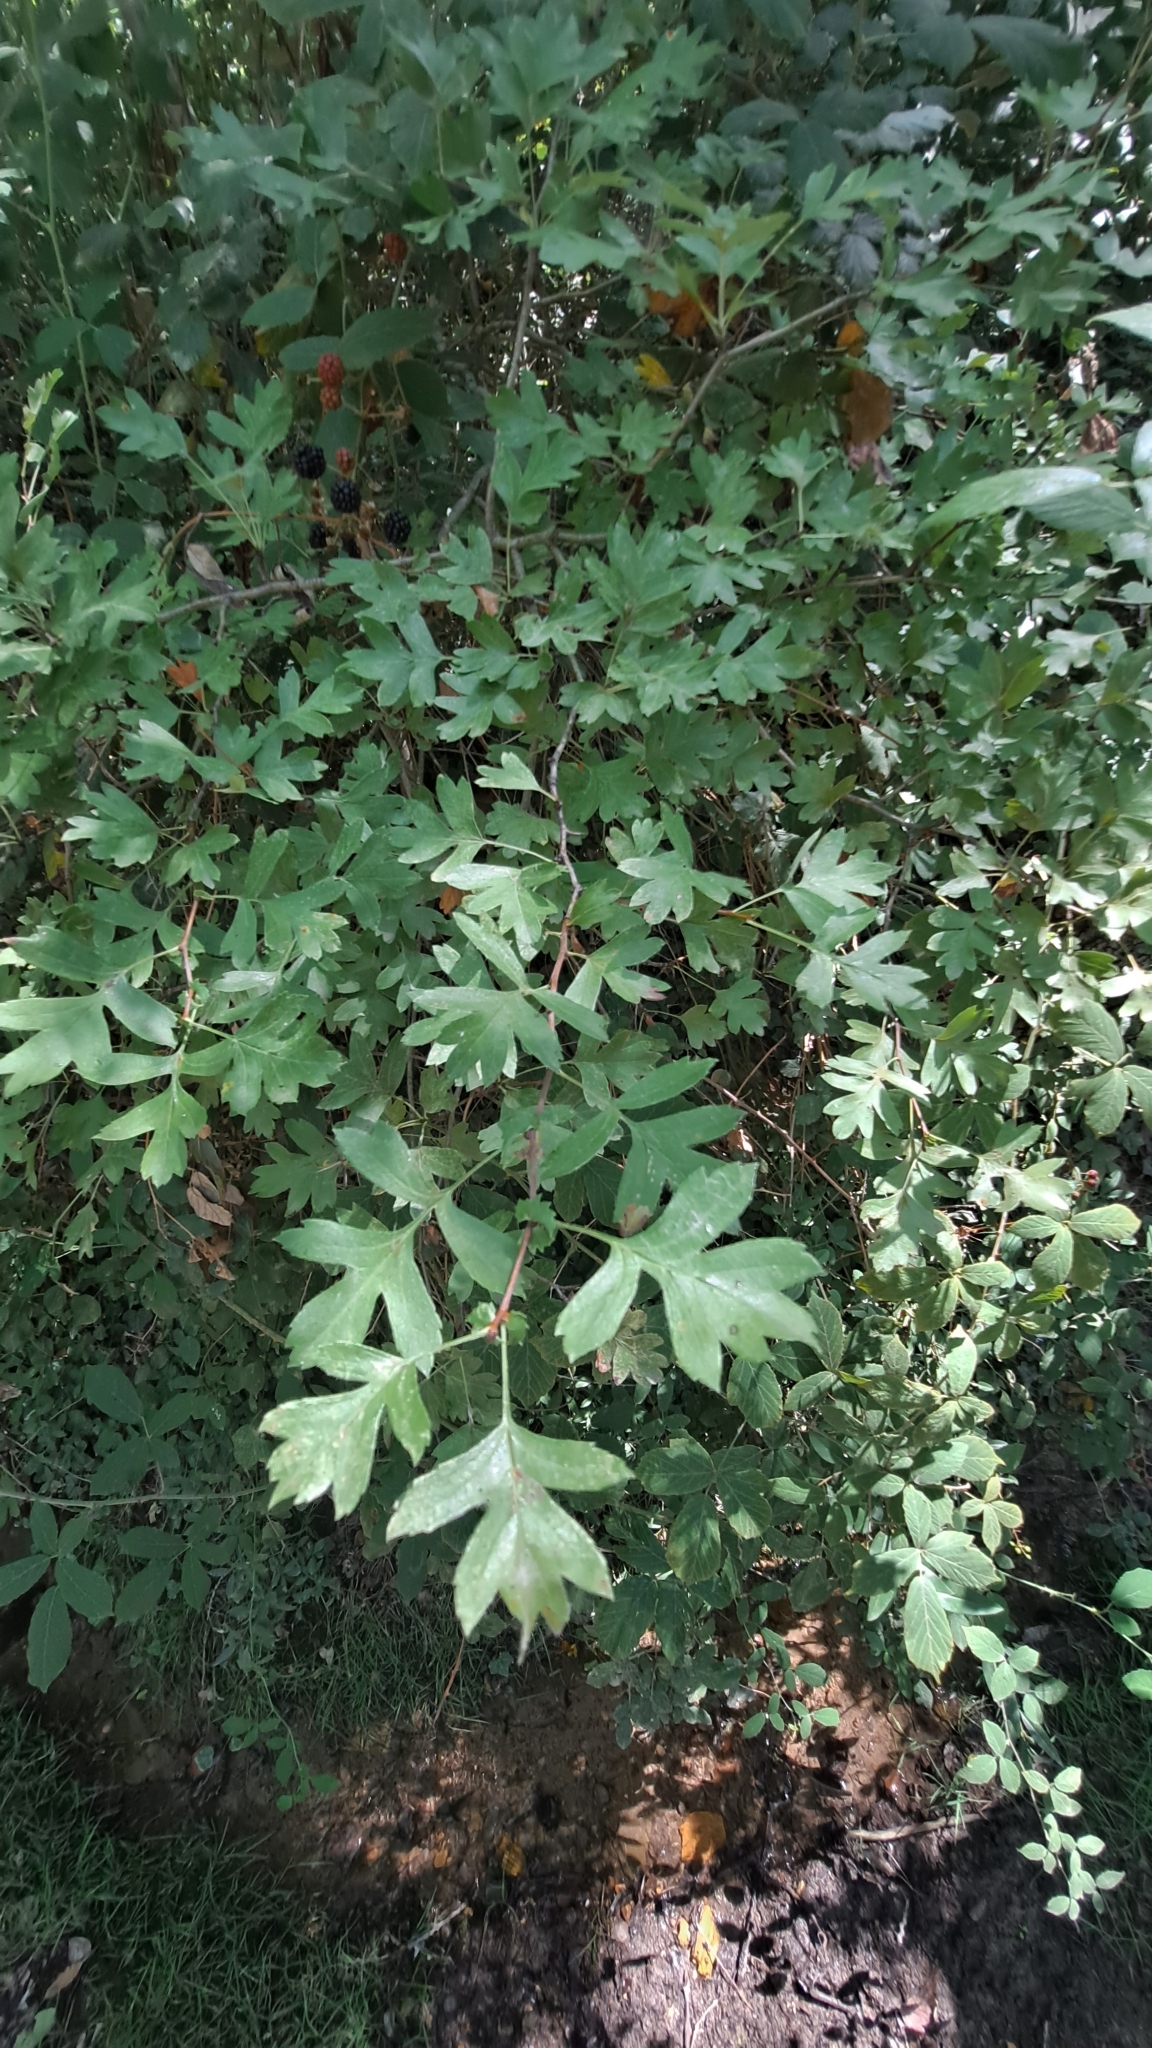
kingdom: Plantae
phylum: Tracheophyta
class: Magnoliopsida
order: Rosales
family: Rosaceae
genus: Crataegus
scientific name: Crataegus monogyna
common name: Hawthorn
